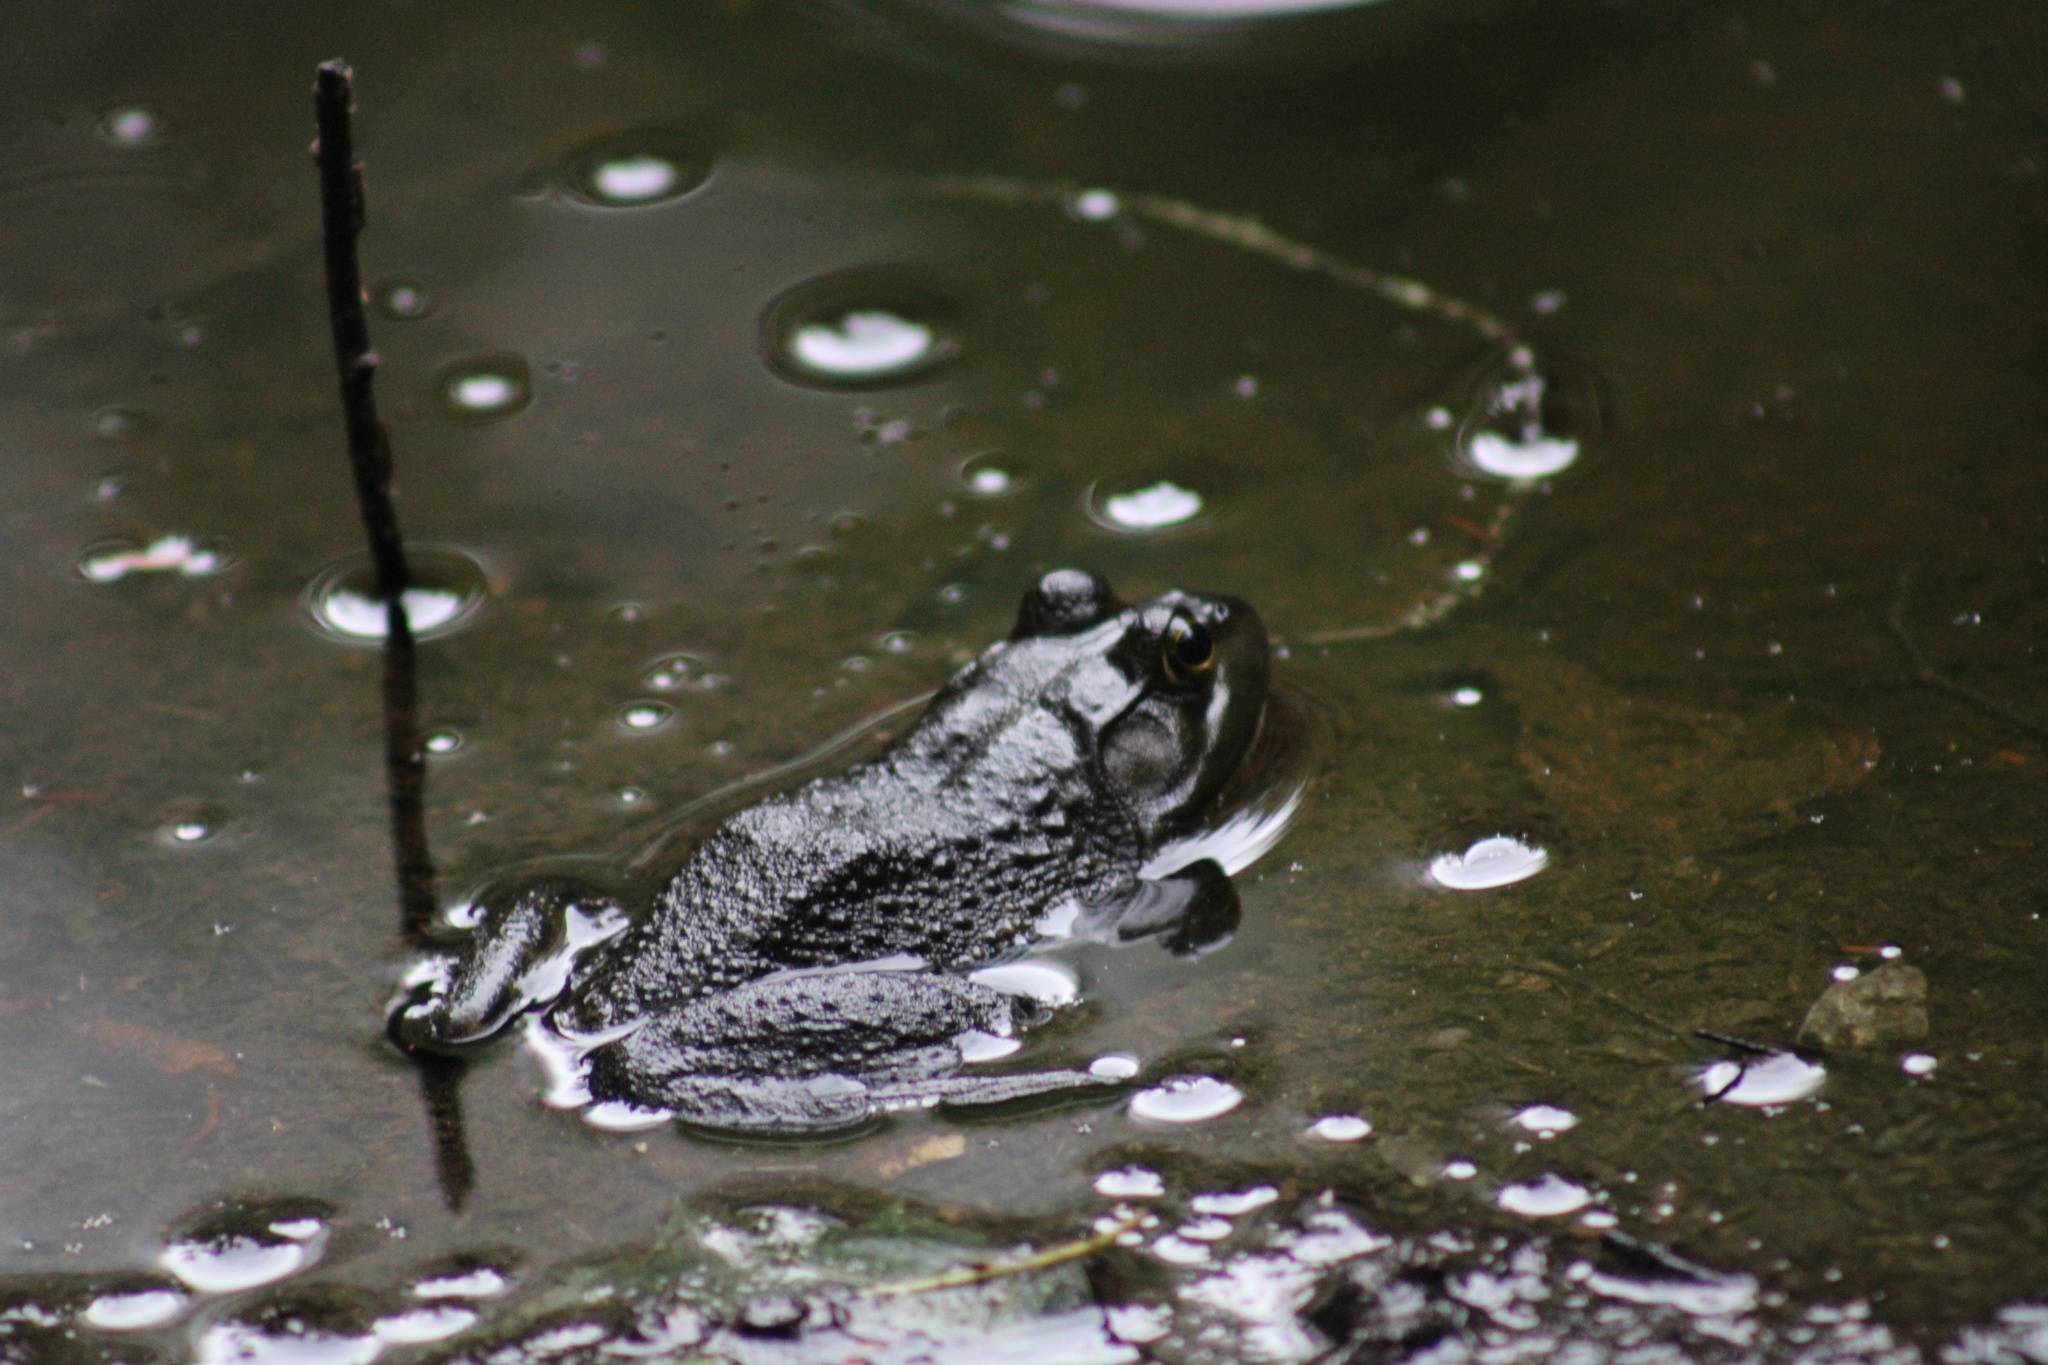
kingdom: Animalia
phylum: Chordata
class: Amphibia
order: Anura
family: Ranidae
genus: Lithobates
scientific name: Lithobates catesbeianus
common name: American bullfrog
